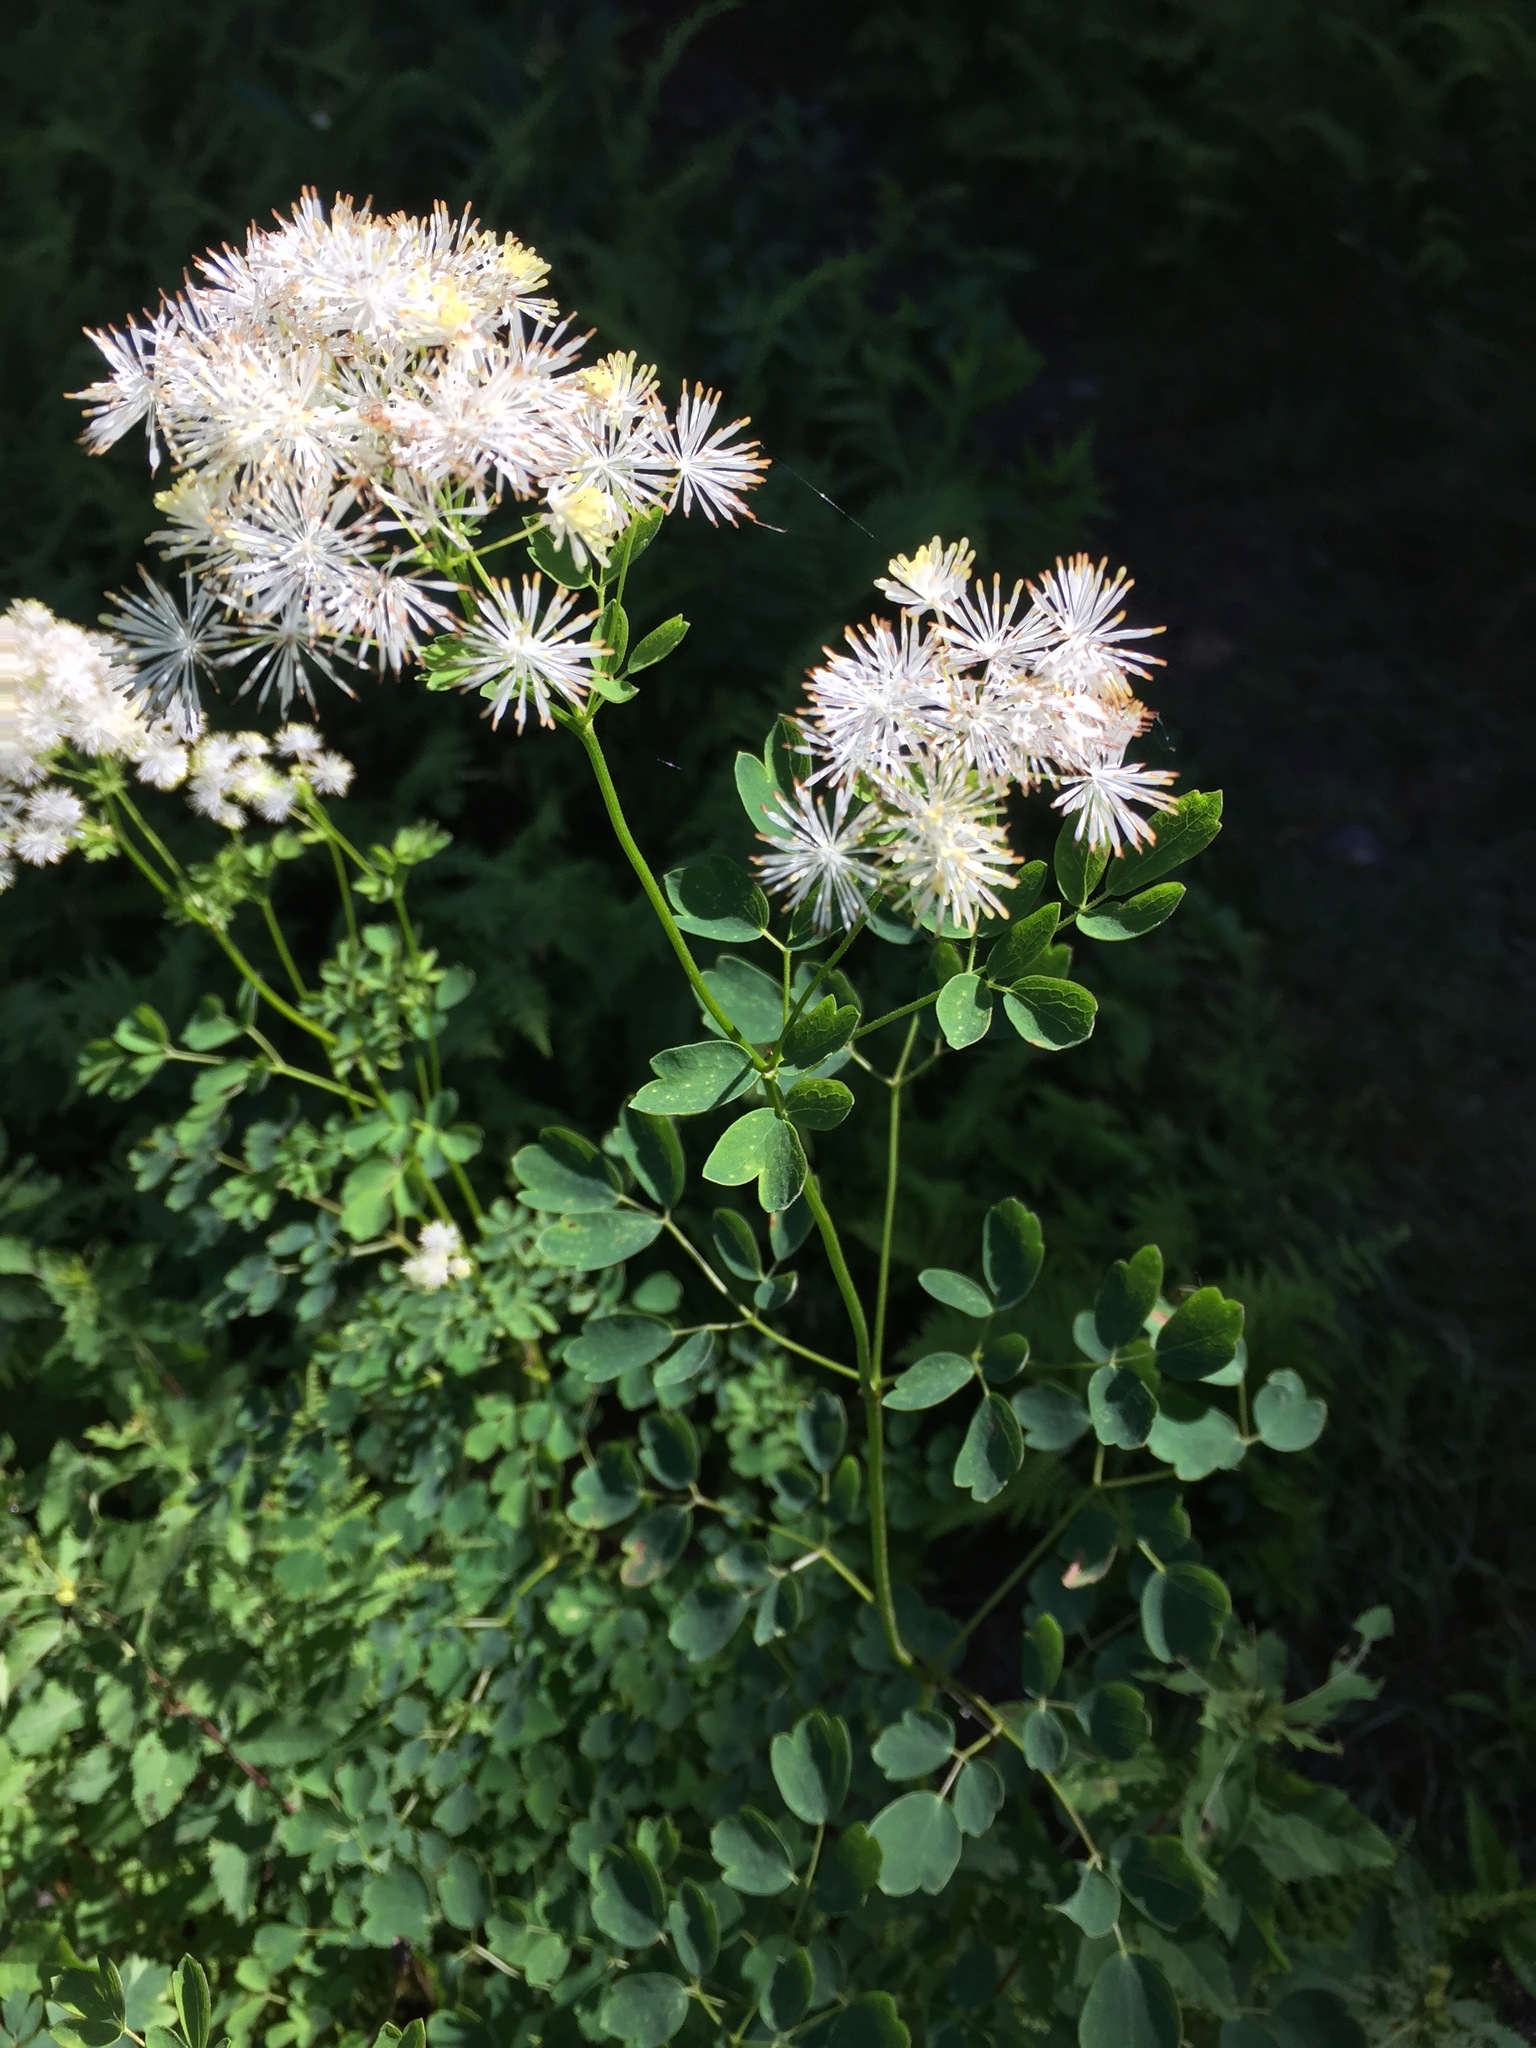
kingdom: Plantae
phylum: Tracheophyta
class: Magnoliopsida
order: Ranunculales
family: Ranunculaceae
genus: Thalictrum
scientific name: Thalictrum pubescens
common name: King-of-the-meadow
